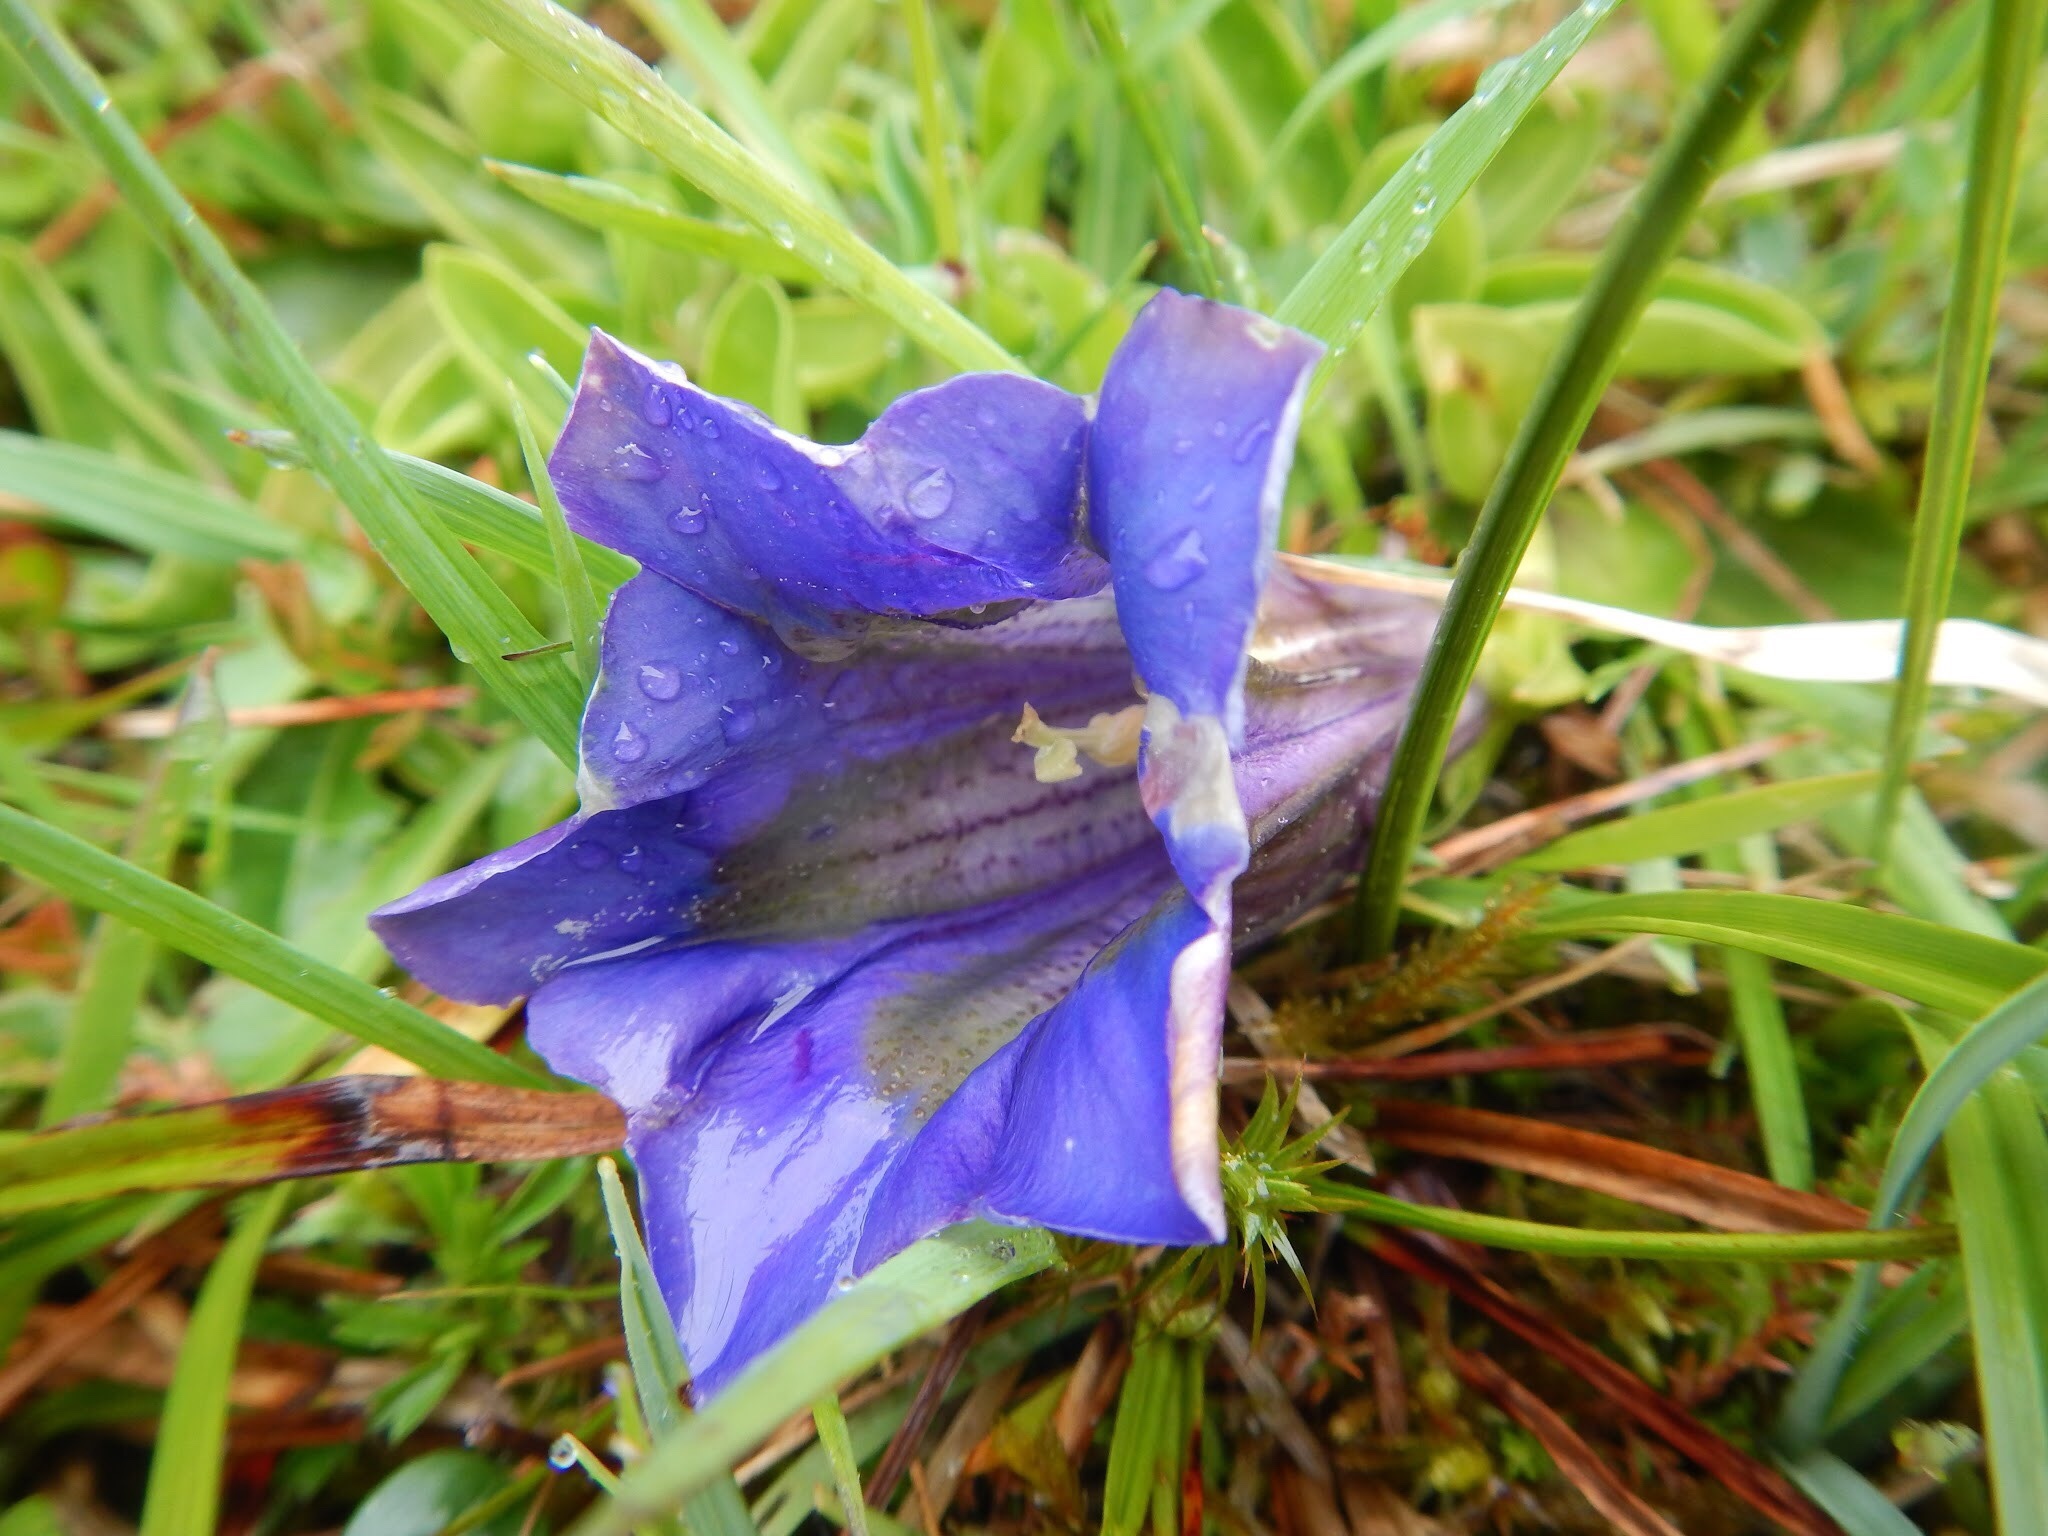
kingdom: Plantae
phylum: Tracheophyta
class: Magnoliopsida
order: Gentianales
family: Gentianaceae
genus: Gentiana
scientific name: Gentiana acaulis
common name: Trumpet gentian
